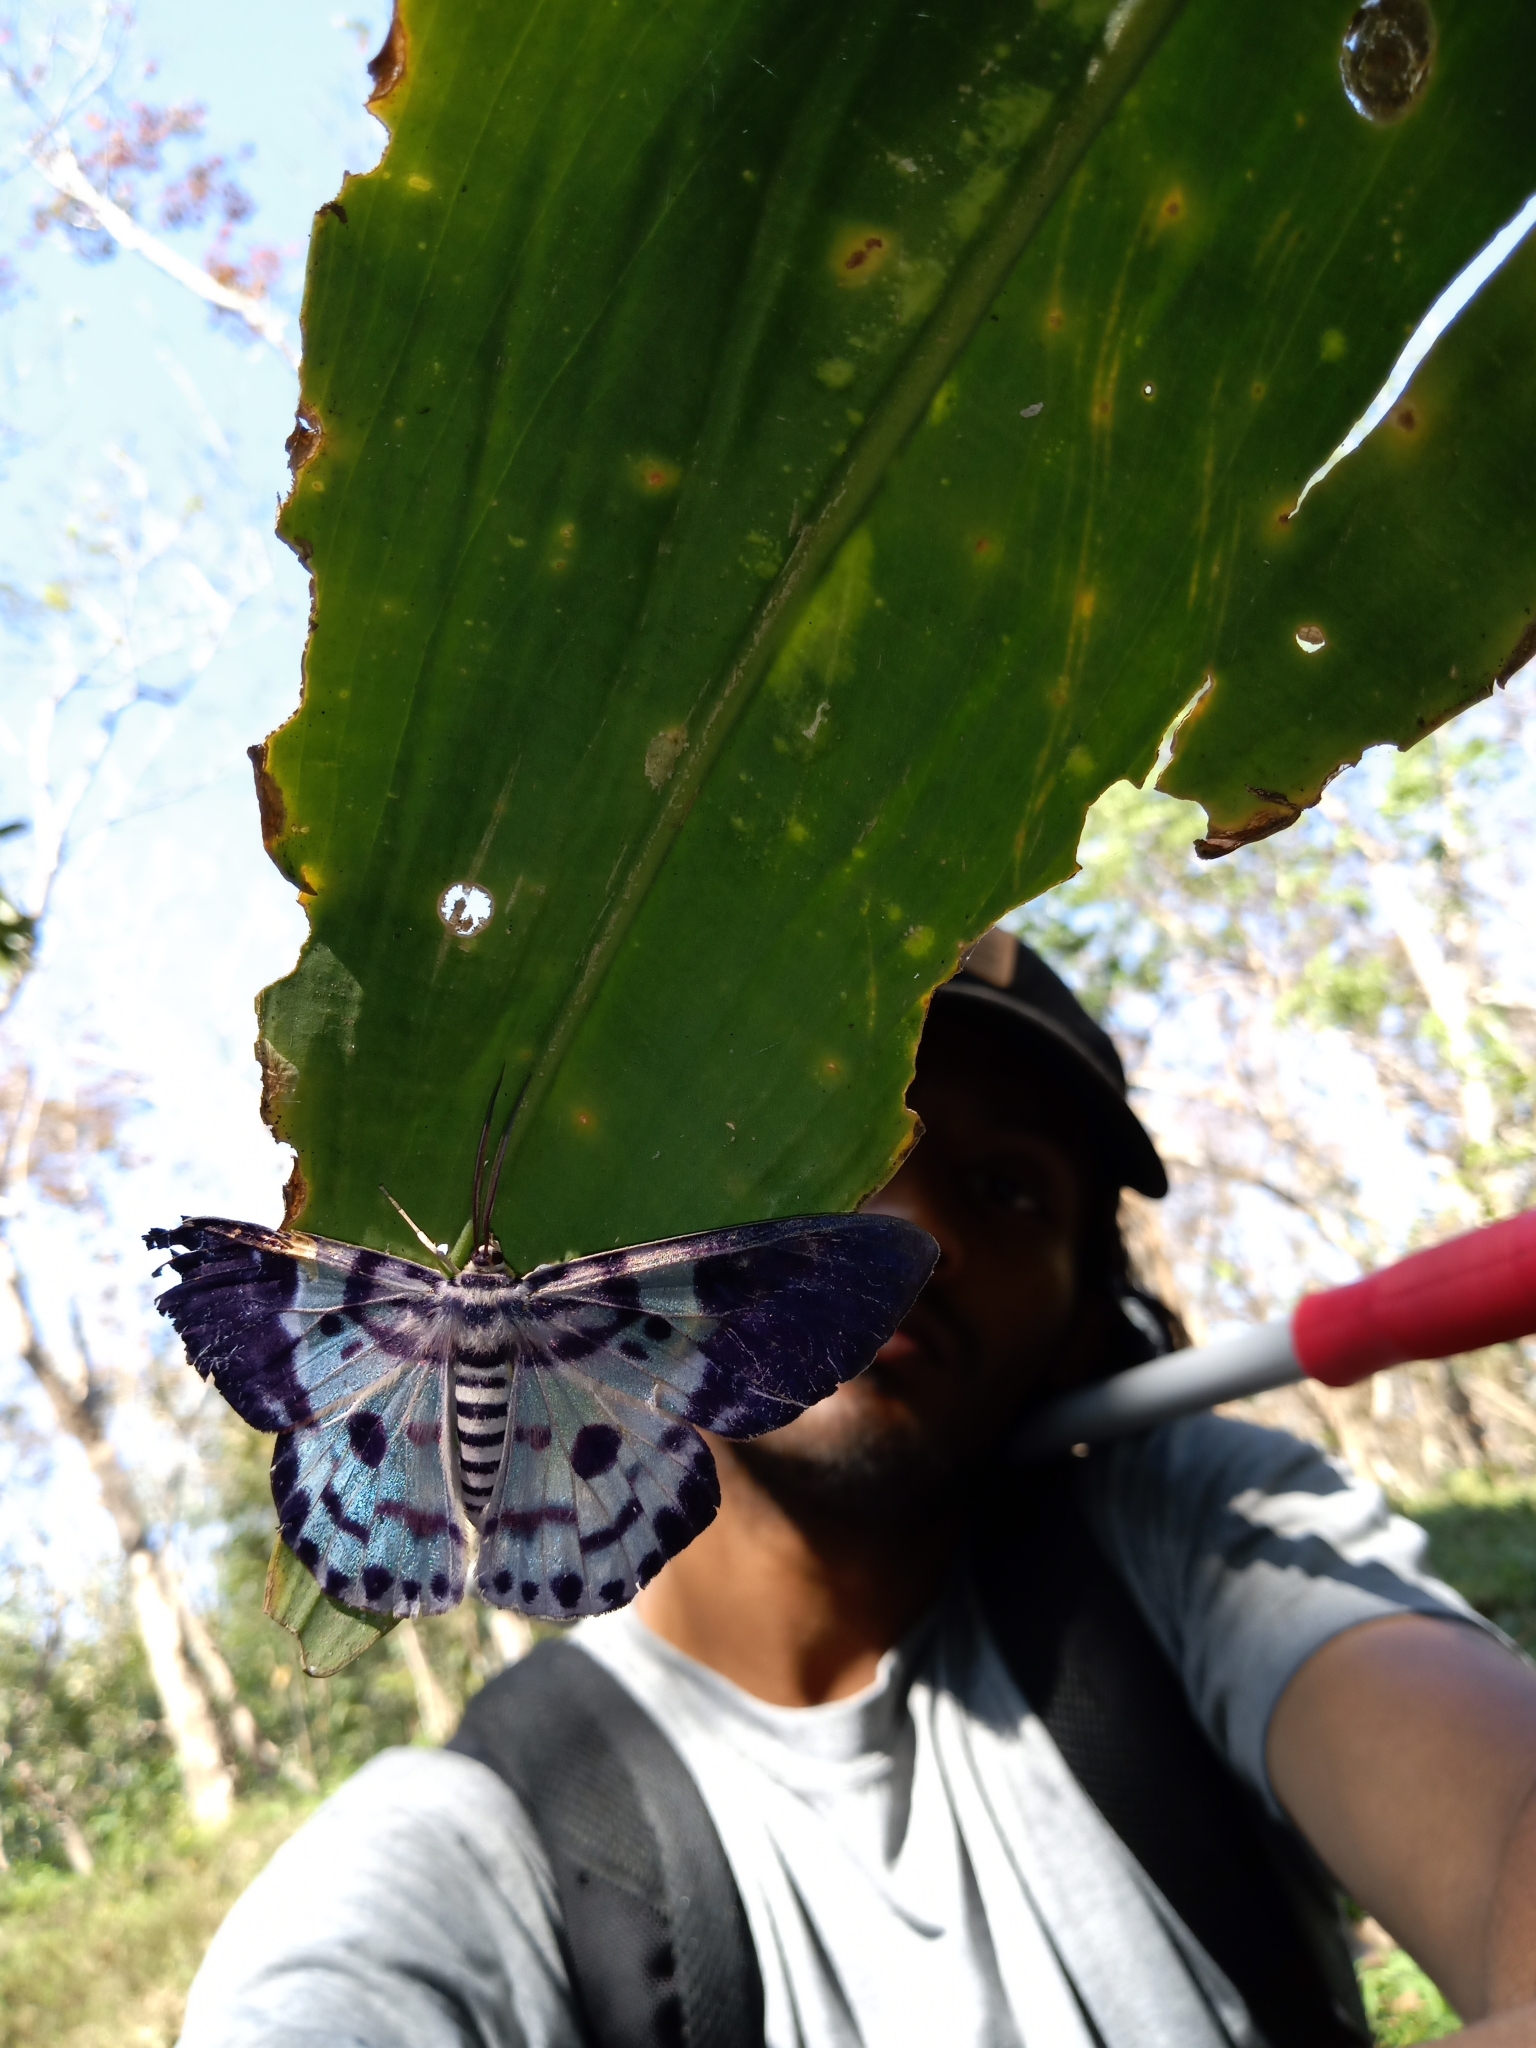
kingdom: Animalia
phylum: Arthropoda
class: Insecta
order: Lepidoptera
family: Geometridae
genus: Dysphania
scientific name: Dysphania percota
